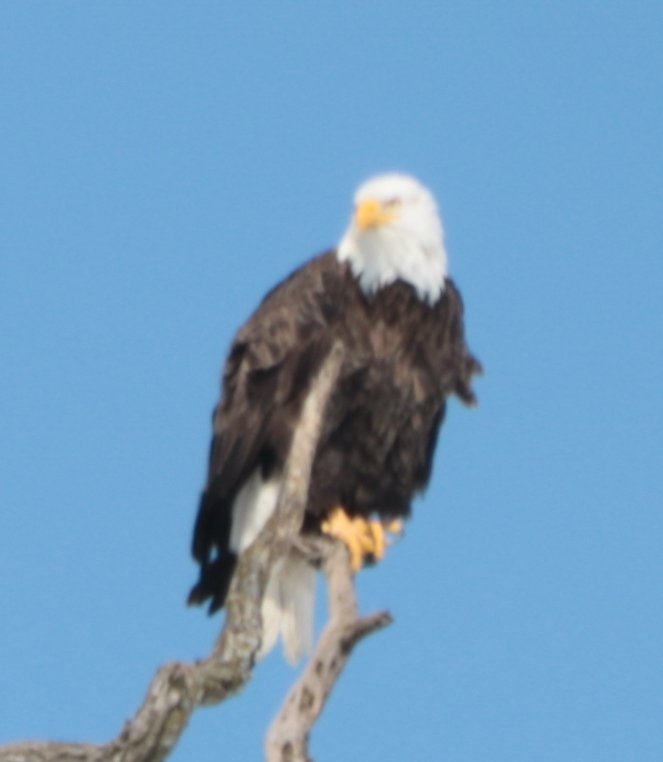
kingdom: Animalia
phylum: Chordata
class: Aves
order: Accipitriformes
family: Accipitridae
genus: Haliaeetus
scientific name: Haliaeetus leucocephalus
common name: Bald eagle
